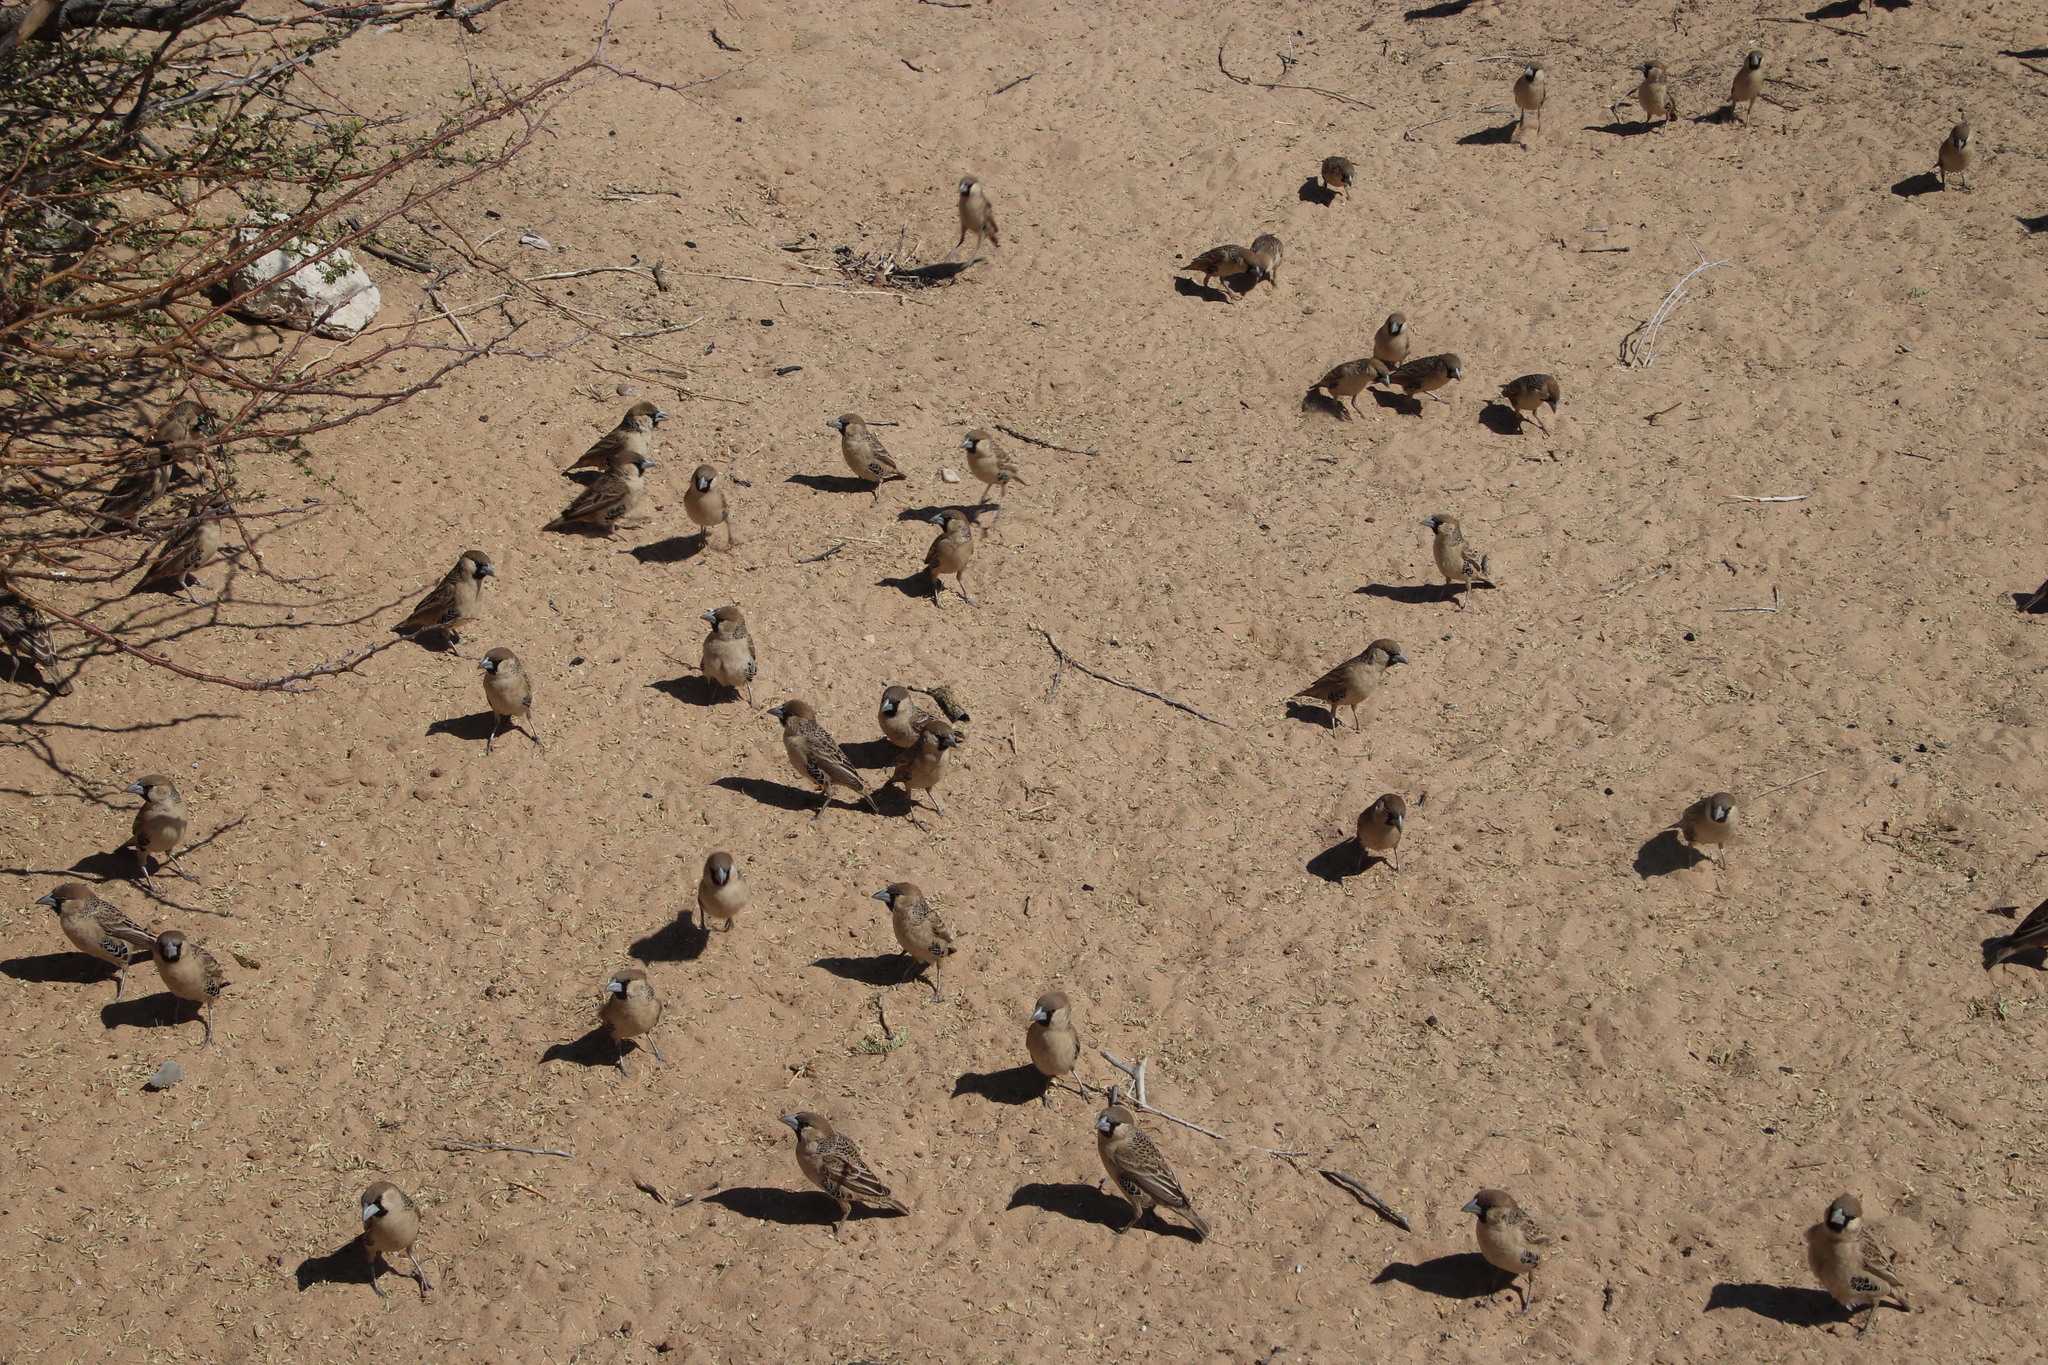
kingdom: Animalia
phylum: Chordata
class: Aves
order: Passeriformes
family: Passeridae
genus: Philetairus
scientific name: Philetairus socius
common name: Sociable weaver
